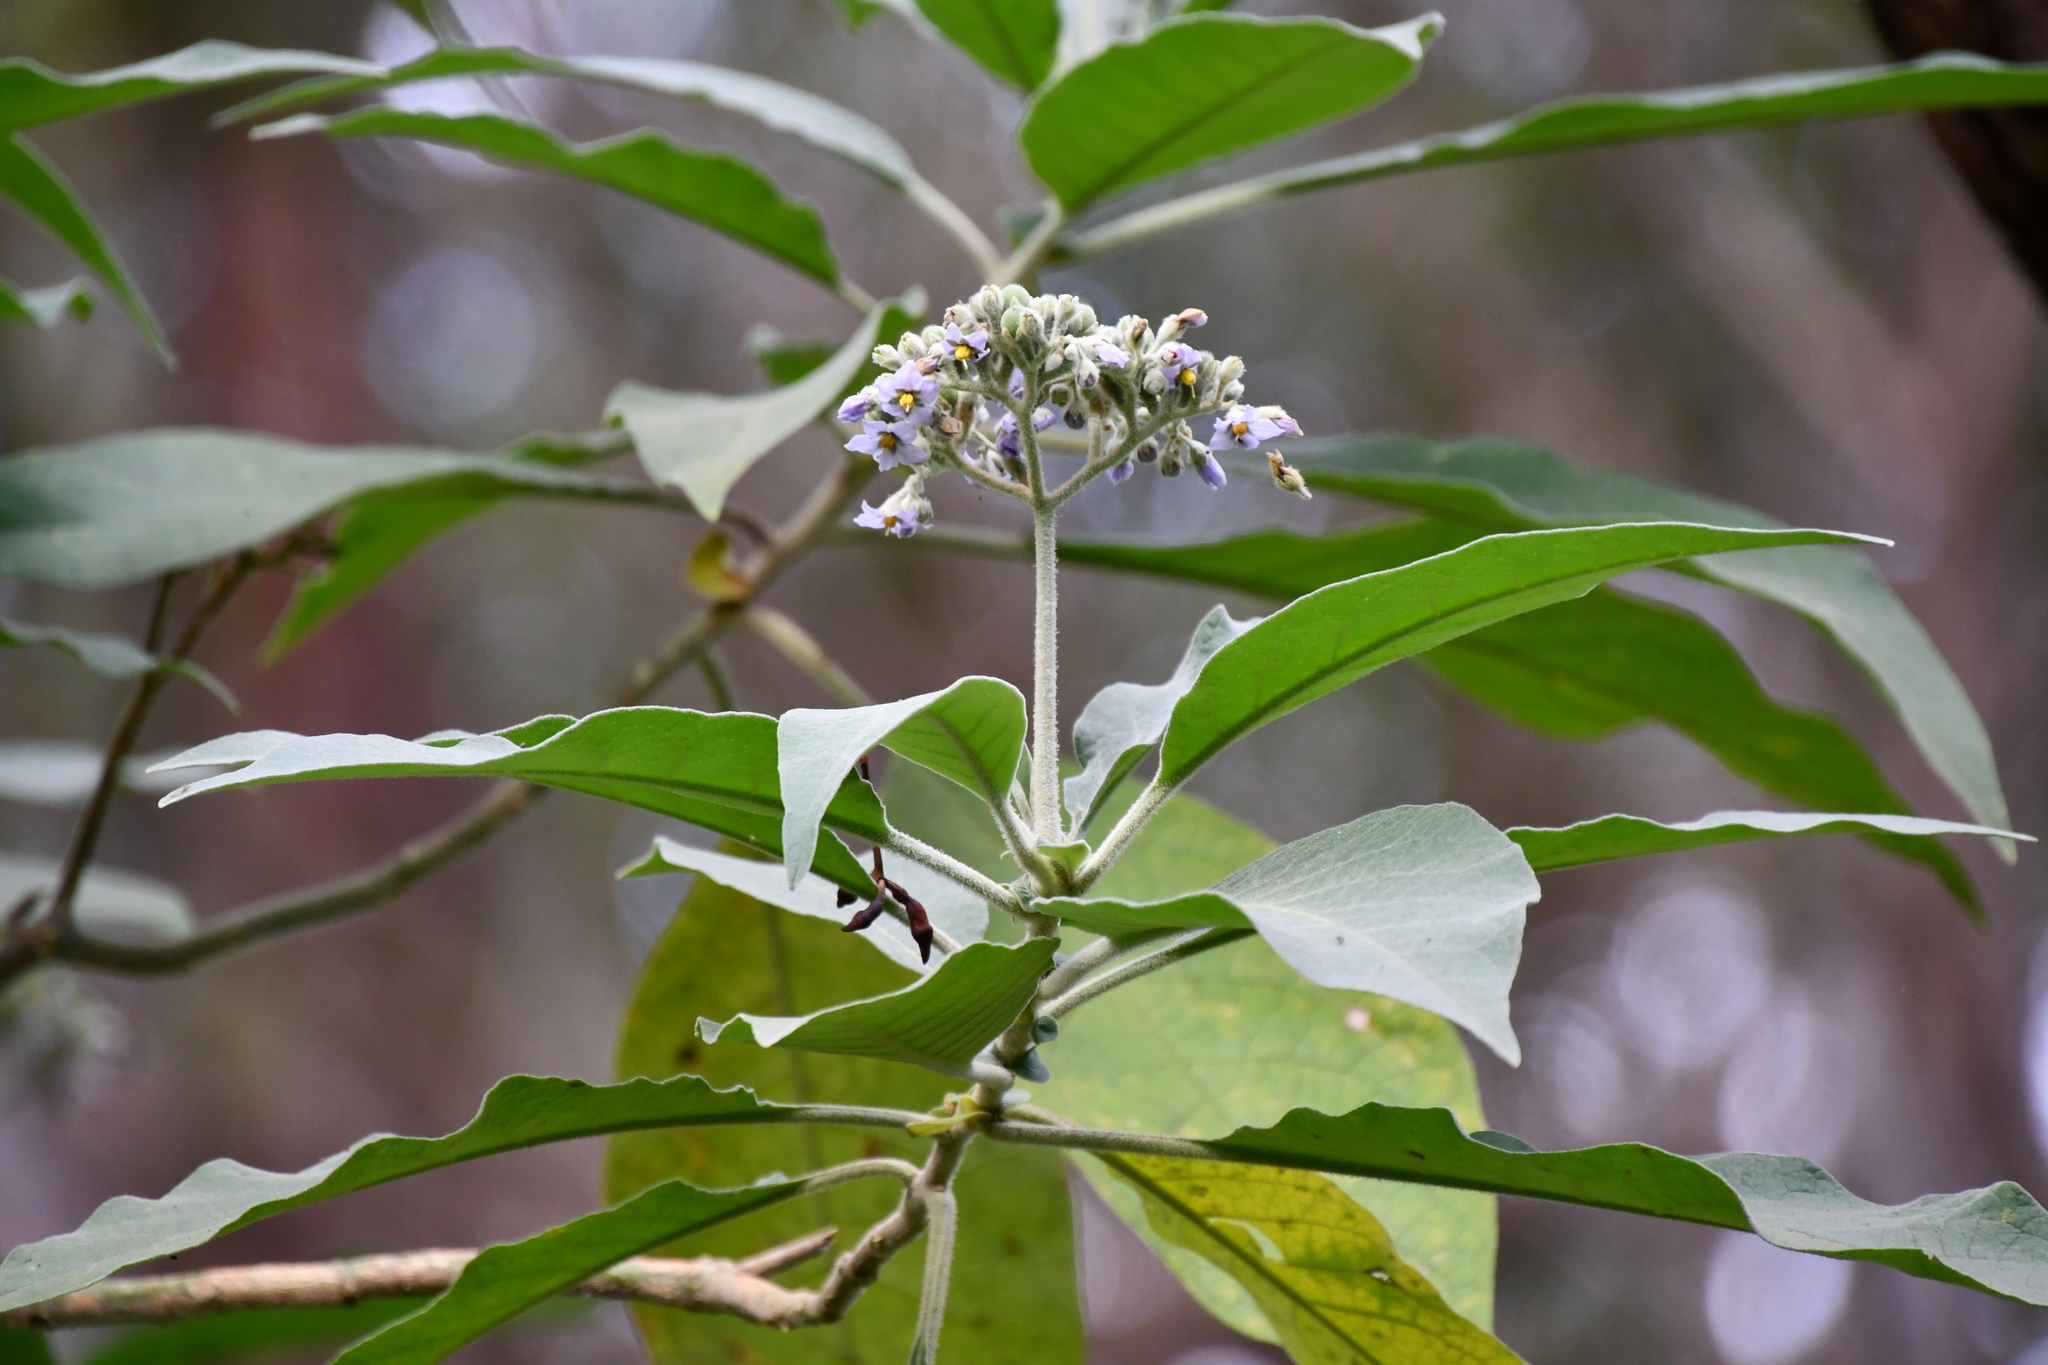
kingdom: Plantae
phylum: Tracheophyta
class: Magnoliopsida
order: Solanales
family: Solanaceae
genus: Solanum
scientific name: Solanum mauritianum
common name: Earleaf nightshade
